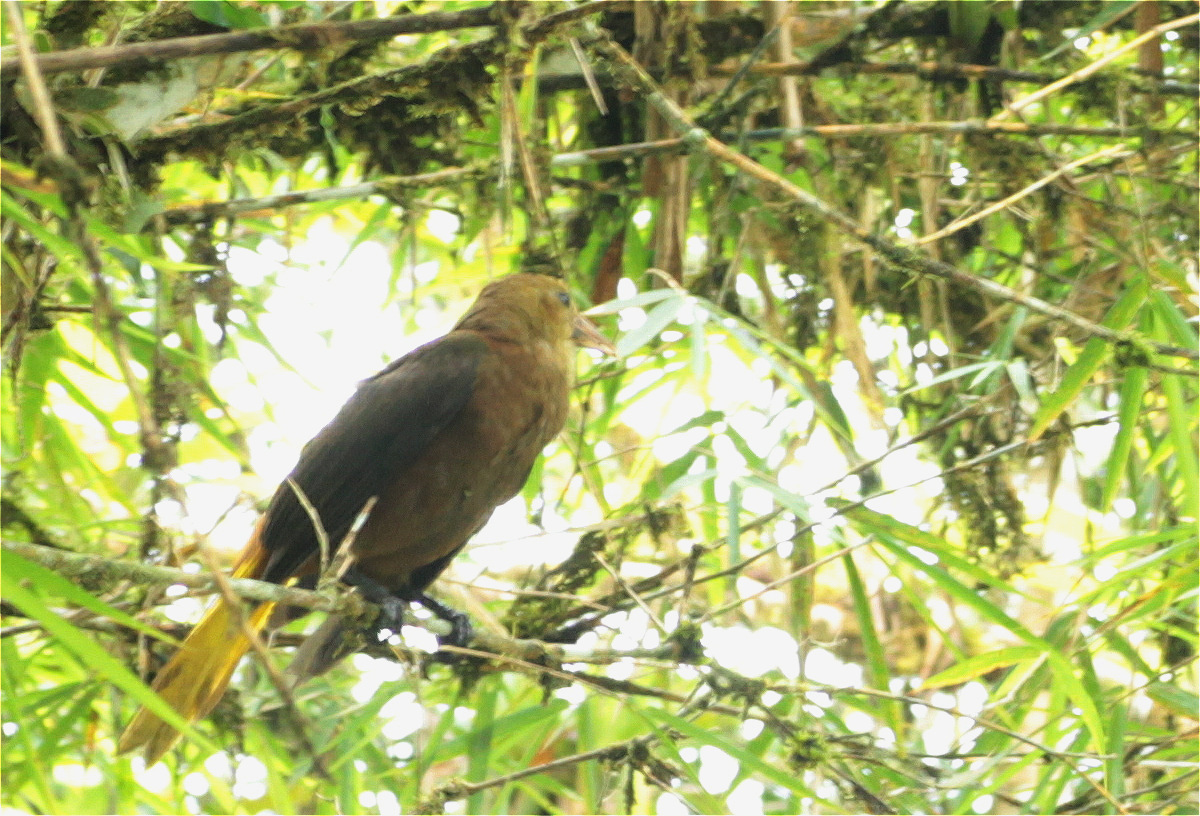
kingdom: Animalia
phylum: Chordata
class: Aves
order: Passeriformes
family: Icteridae
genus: Psarocolius
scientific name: Psarocolius angustifrons
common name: Russet-backed oropendola
